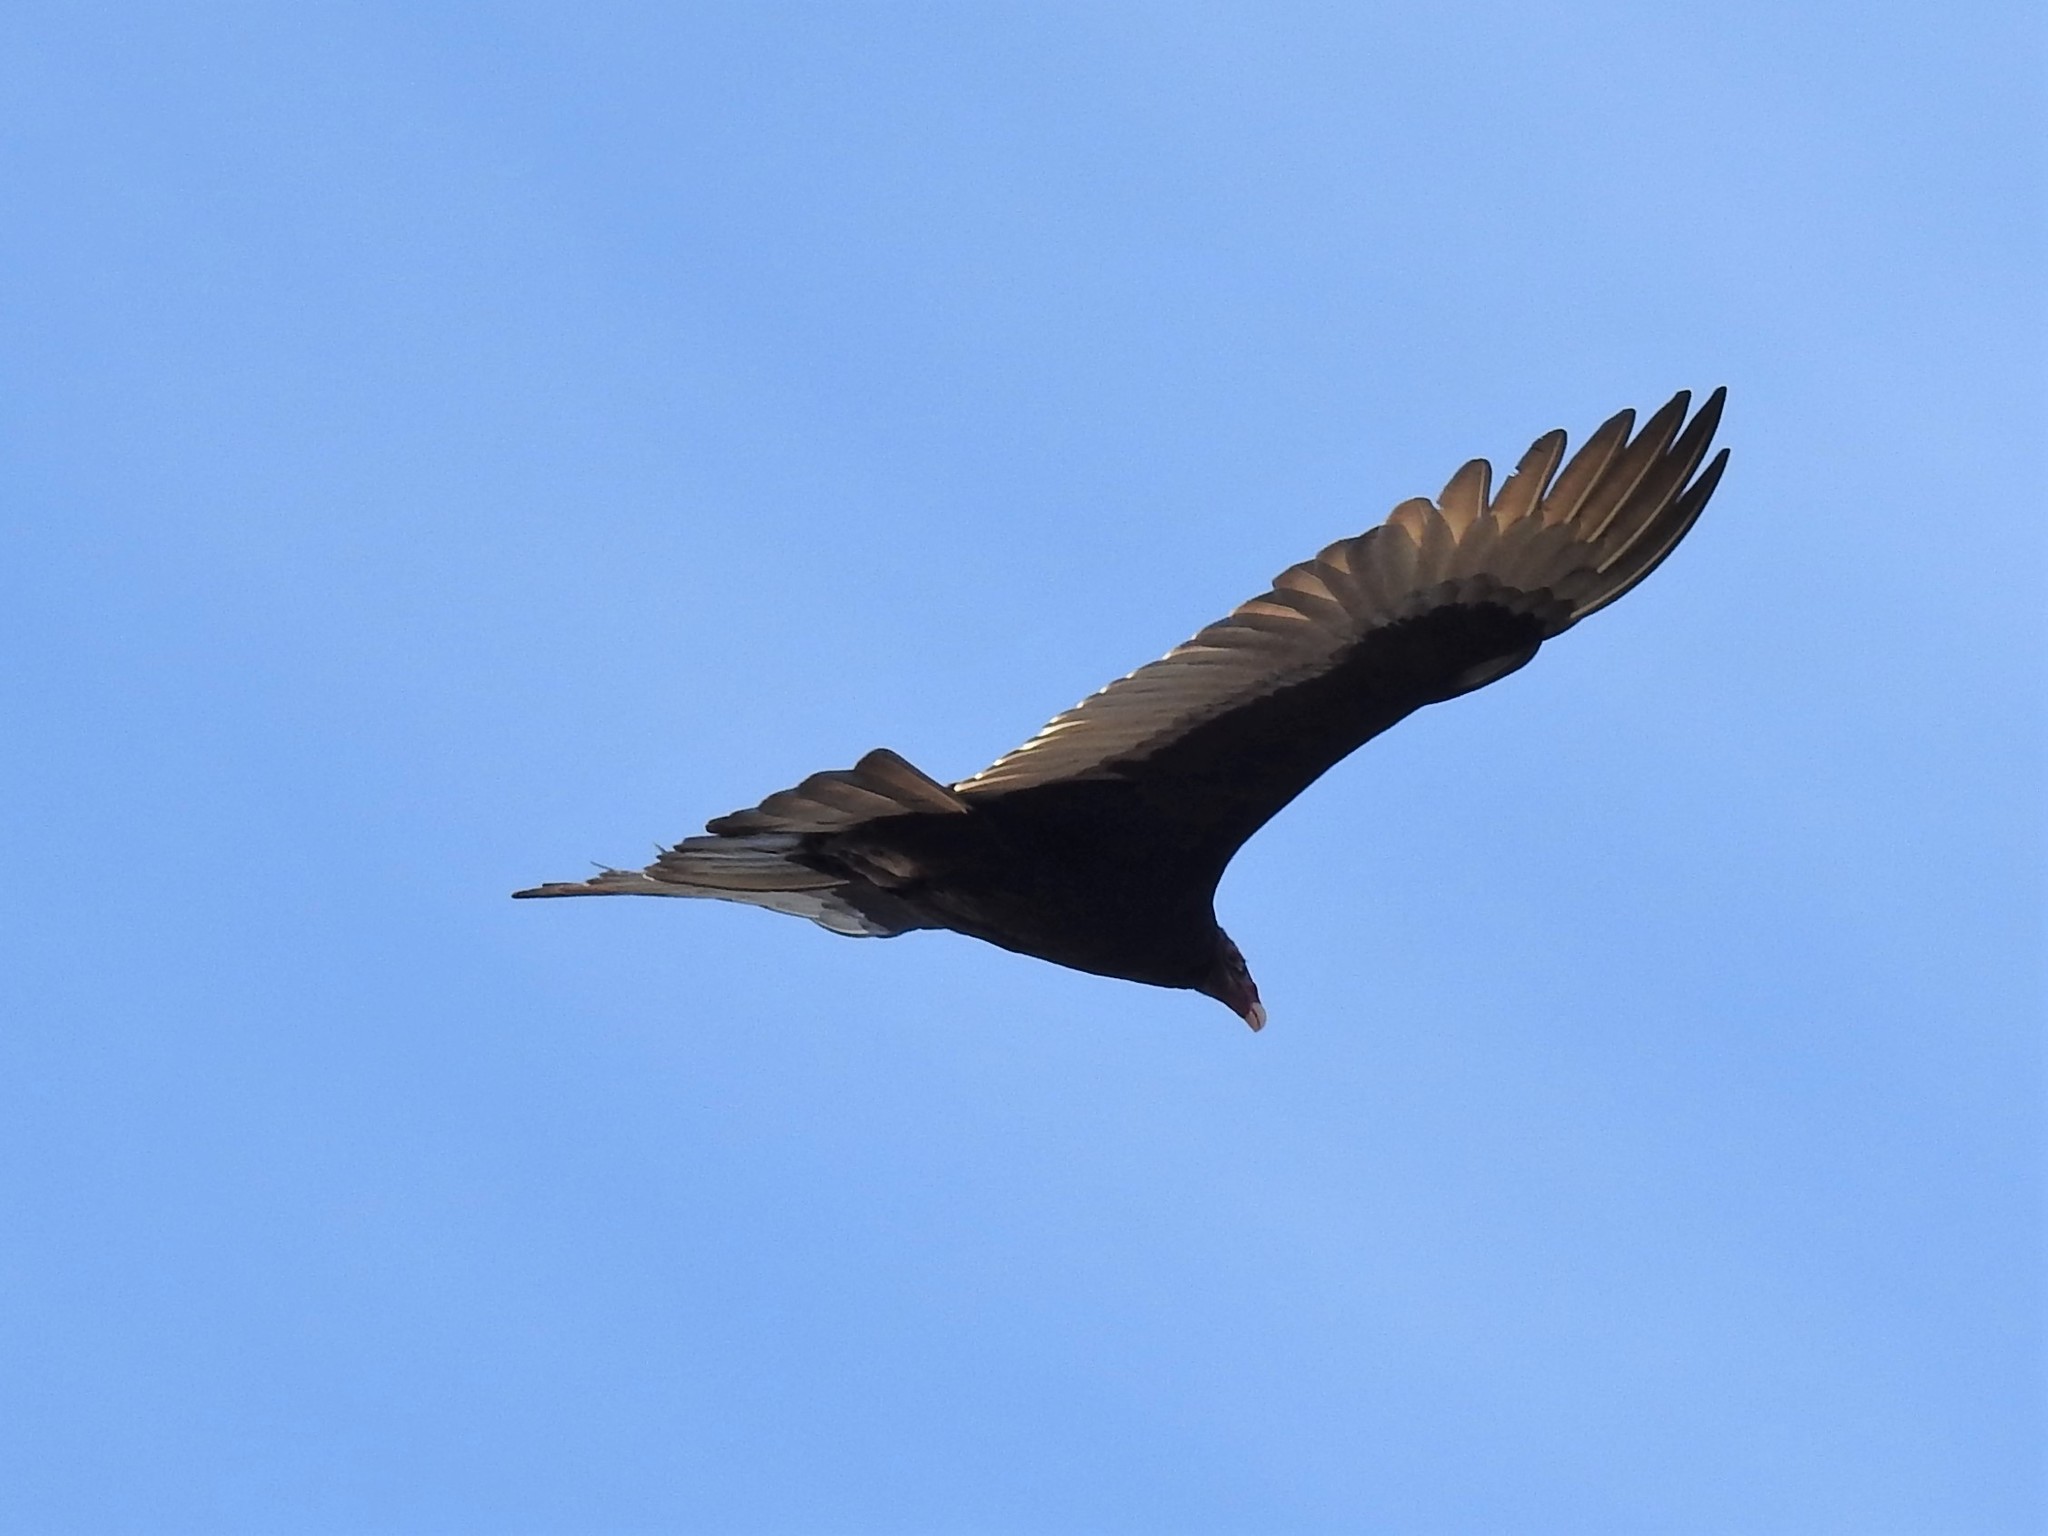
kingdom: Animalia
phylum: Chordata
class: Aves
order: Accipitriformes
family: Cathartidae
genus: Cathartes
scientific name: Cathartes aura
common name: Turkey vulture
